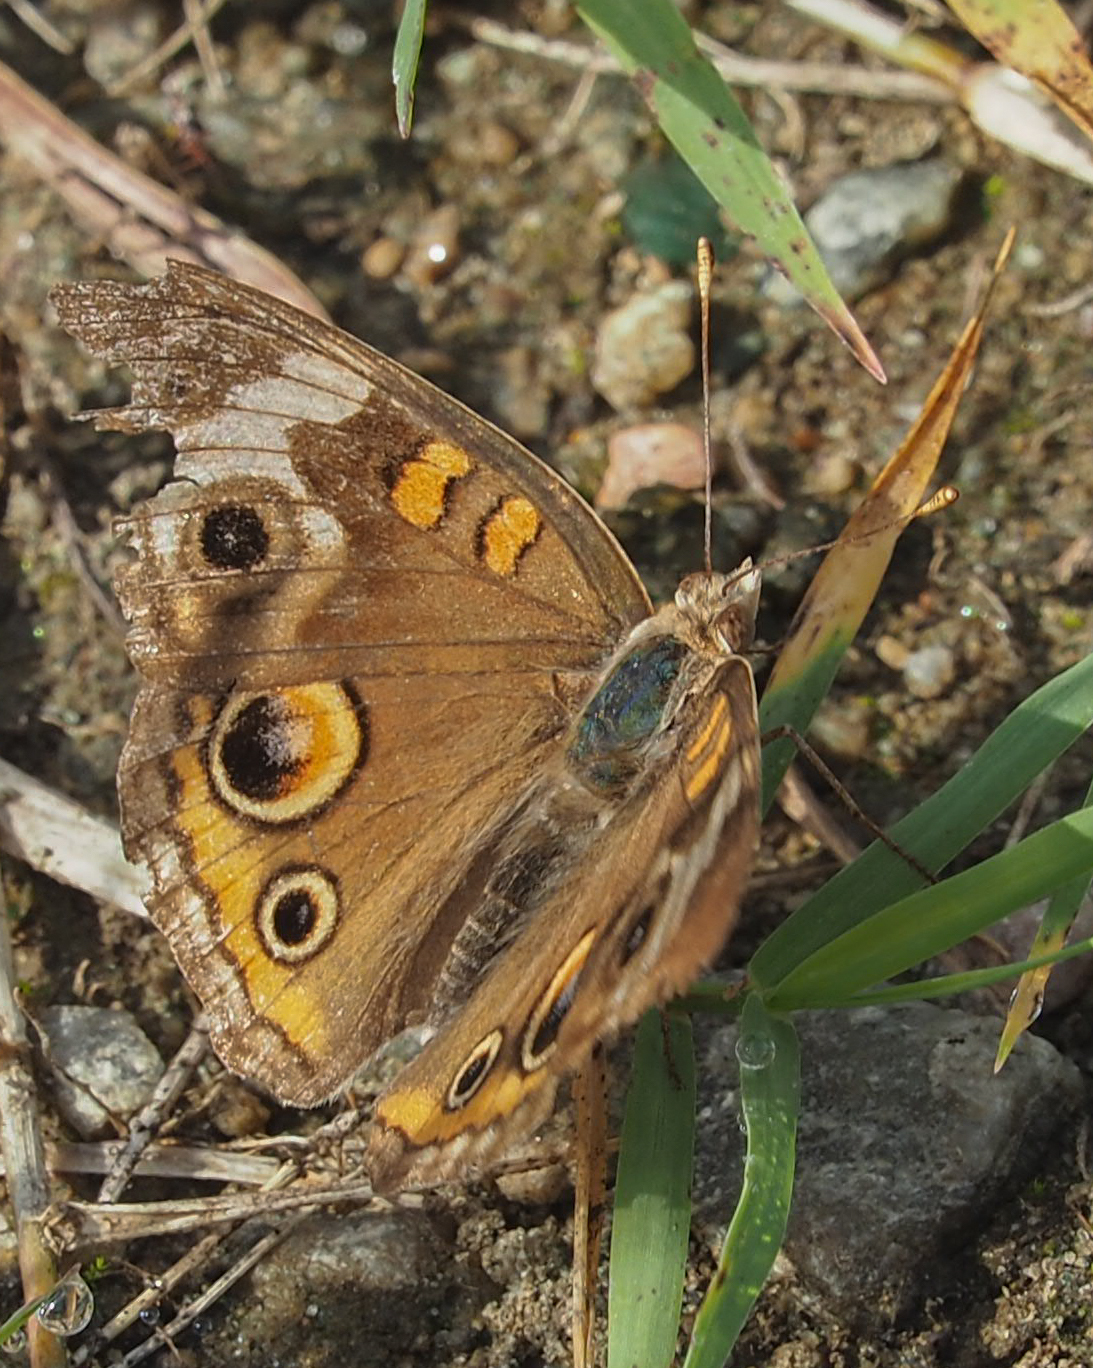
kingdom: Animalia
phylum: Arthropoda
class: Insecta
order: Lepidoptera
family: Nymphalidae
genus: Junonia
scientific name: Junonia coenia
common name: Common buckeye
